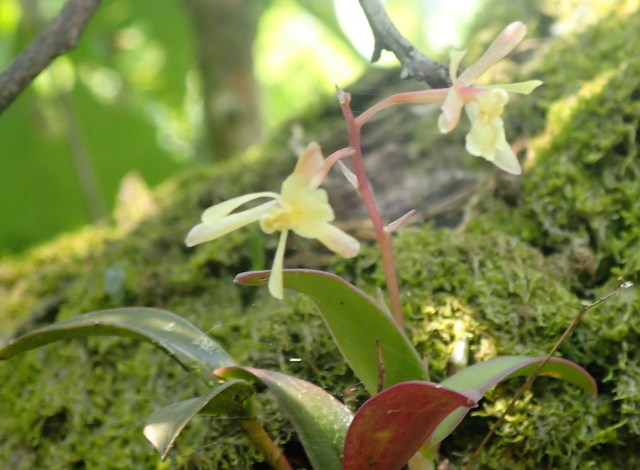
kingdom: Plantae
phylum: Tracheophyta
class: Liliopsida
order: Asparagales
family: Orchidaceae
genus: Epidendrum
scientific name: Epidendrum conopseum
